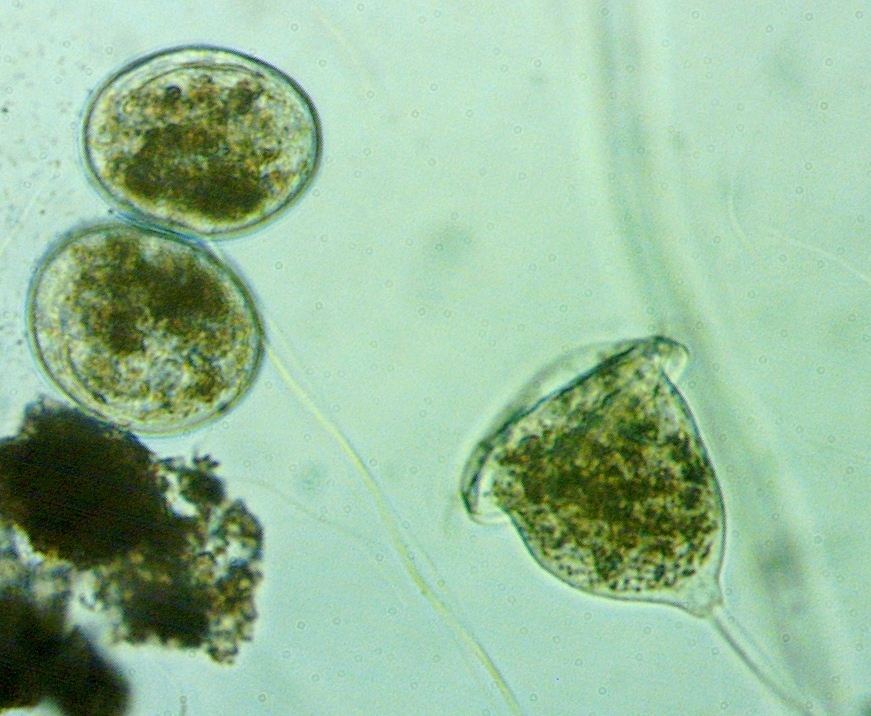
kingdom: Chromista
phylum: Ciliophora
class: Oligohymenophorea
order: Peritrichida
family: Vorticellidae
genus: Vorticella
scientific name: Vorticella campanulla
